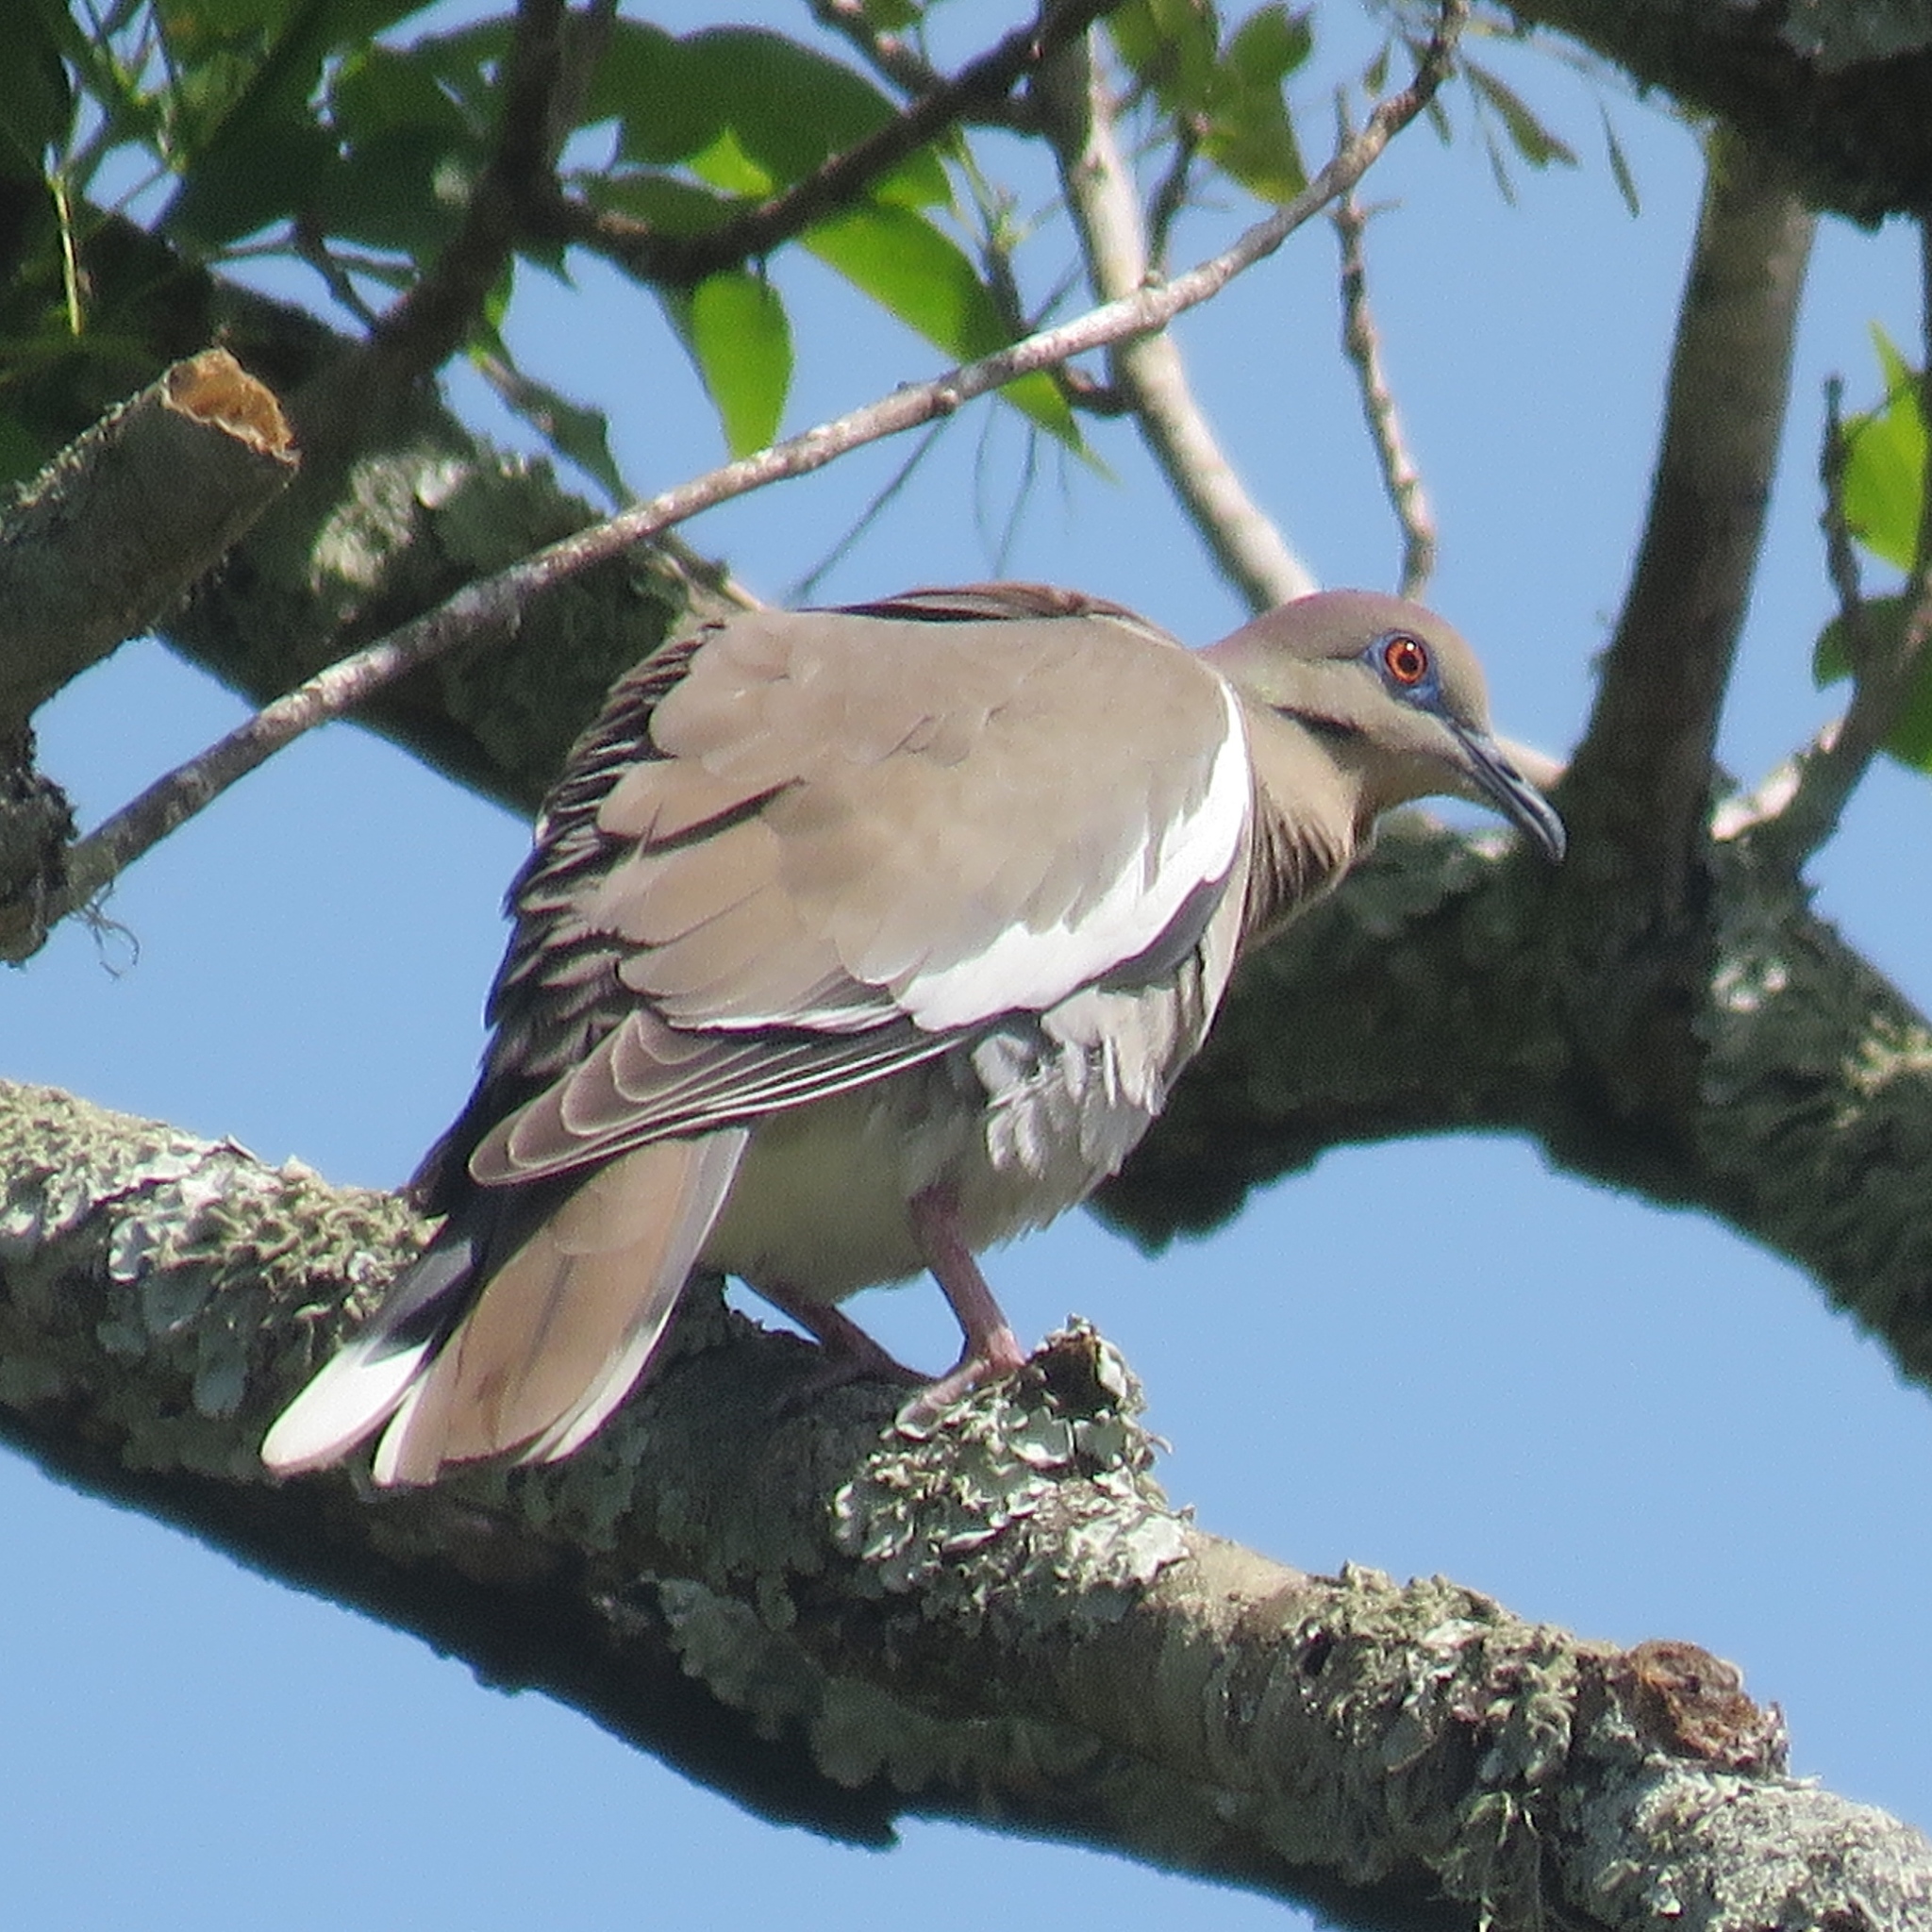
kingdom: Animalia
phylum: Chordata
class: Aves
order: Columbiformes
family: Columbidae
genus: Zenaida
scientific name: Zenaida asiatica
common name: White-winged dove
